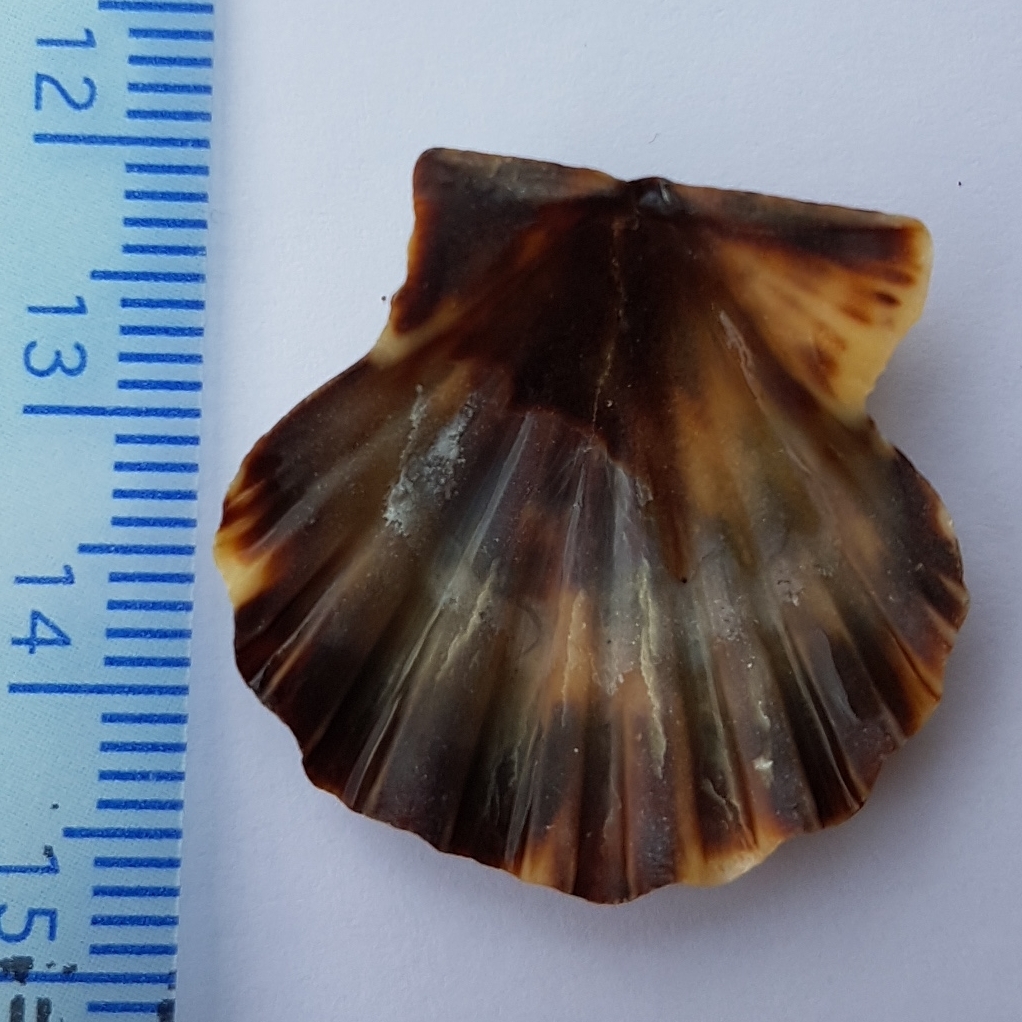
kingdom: Animalia
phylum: Mollusca
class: Bivalvia
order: Pectinida
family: Pectinidae
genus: Flexopecten
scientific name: Flexopecten glaber
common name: Smooth scallop
